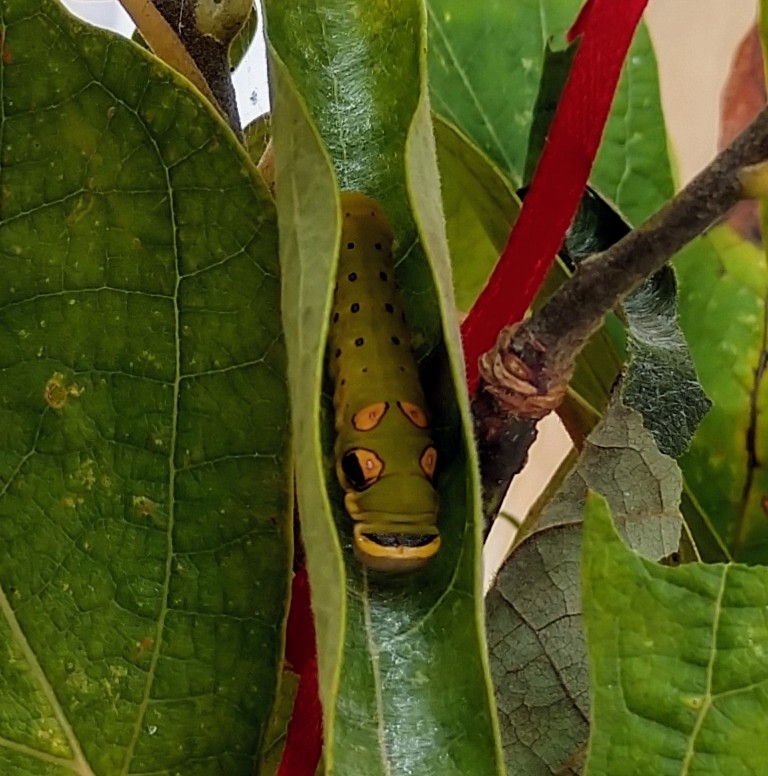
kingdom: Animalia
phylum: Arthropoda
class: Insecta
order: Lepidoptera
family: Papilionidae
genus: Papilio
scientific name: Papilio troilus
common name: Spicebush swallowtail
